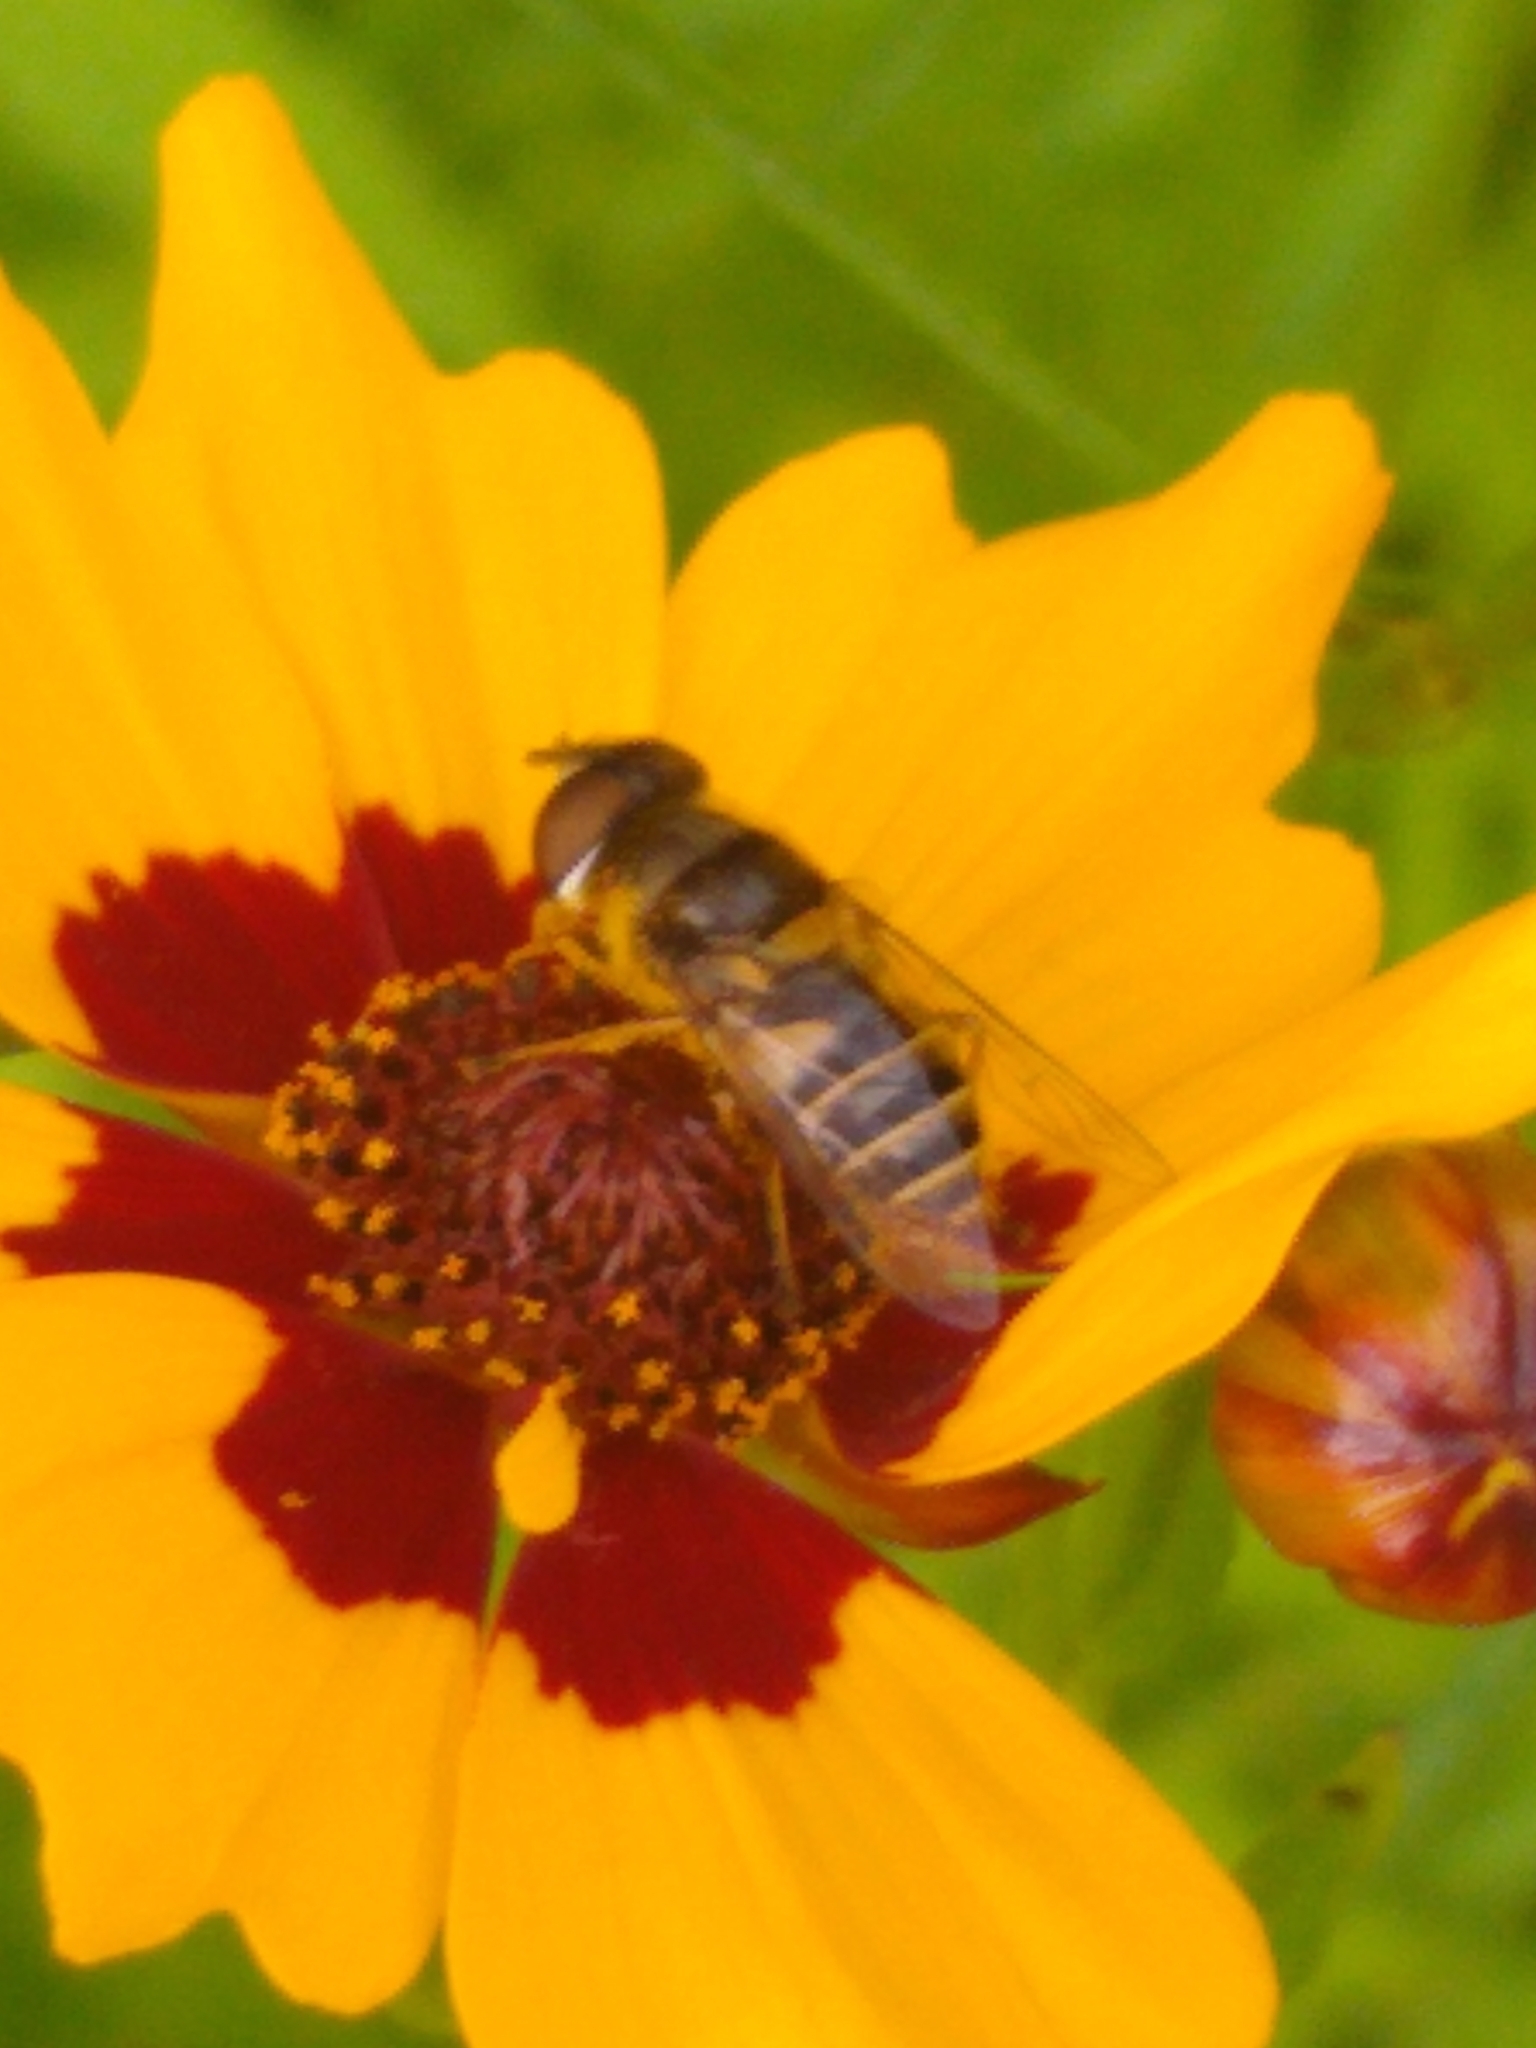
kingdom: Animalia
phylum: Arthropoda
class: Insecta
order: Diptera
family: Syrphidae
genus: Eristalis
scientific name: Eristalis transversa
